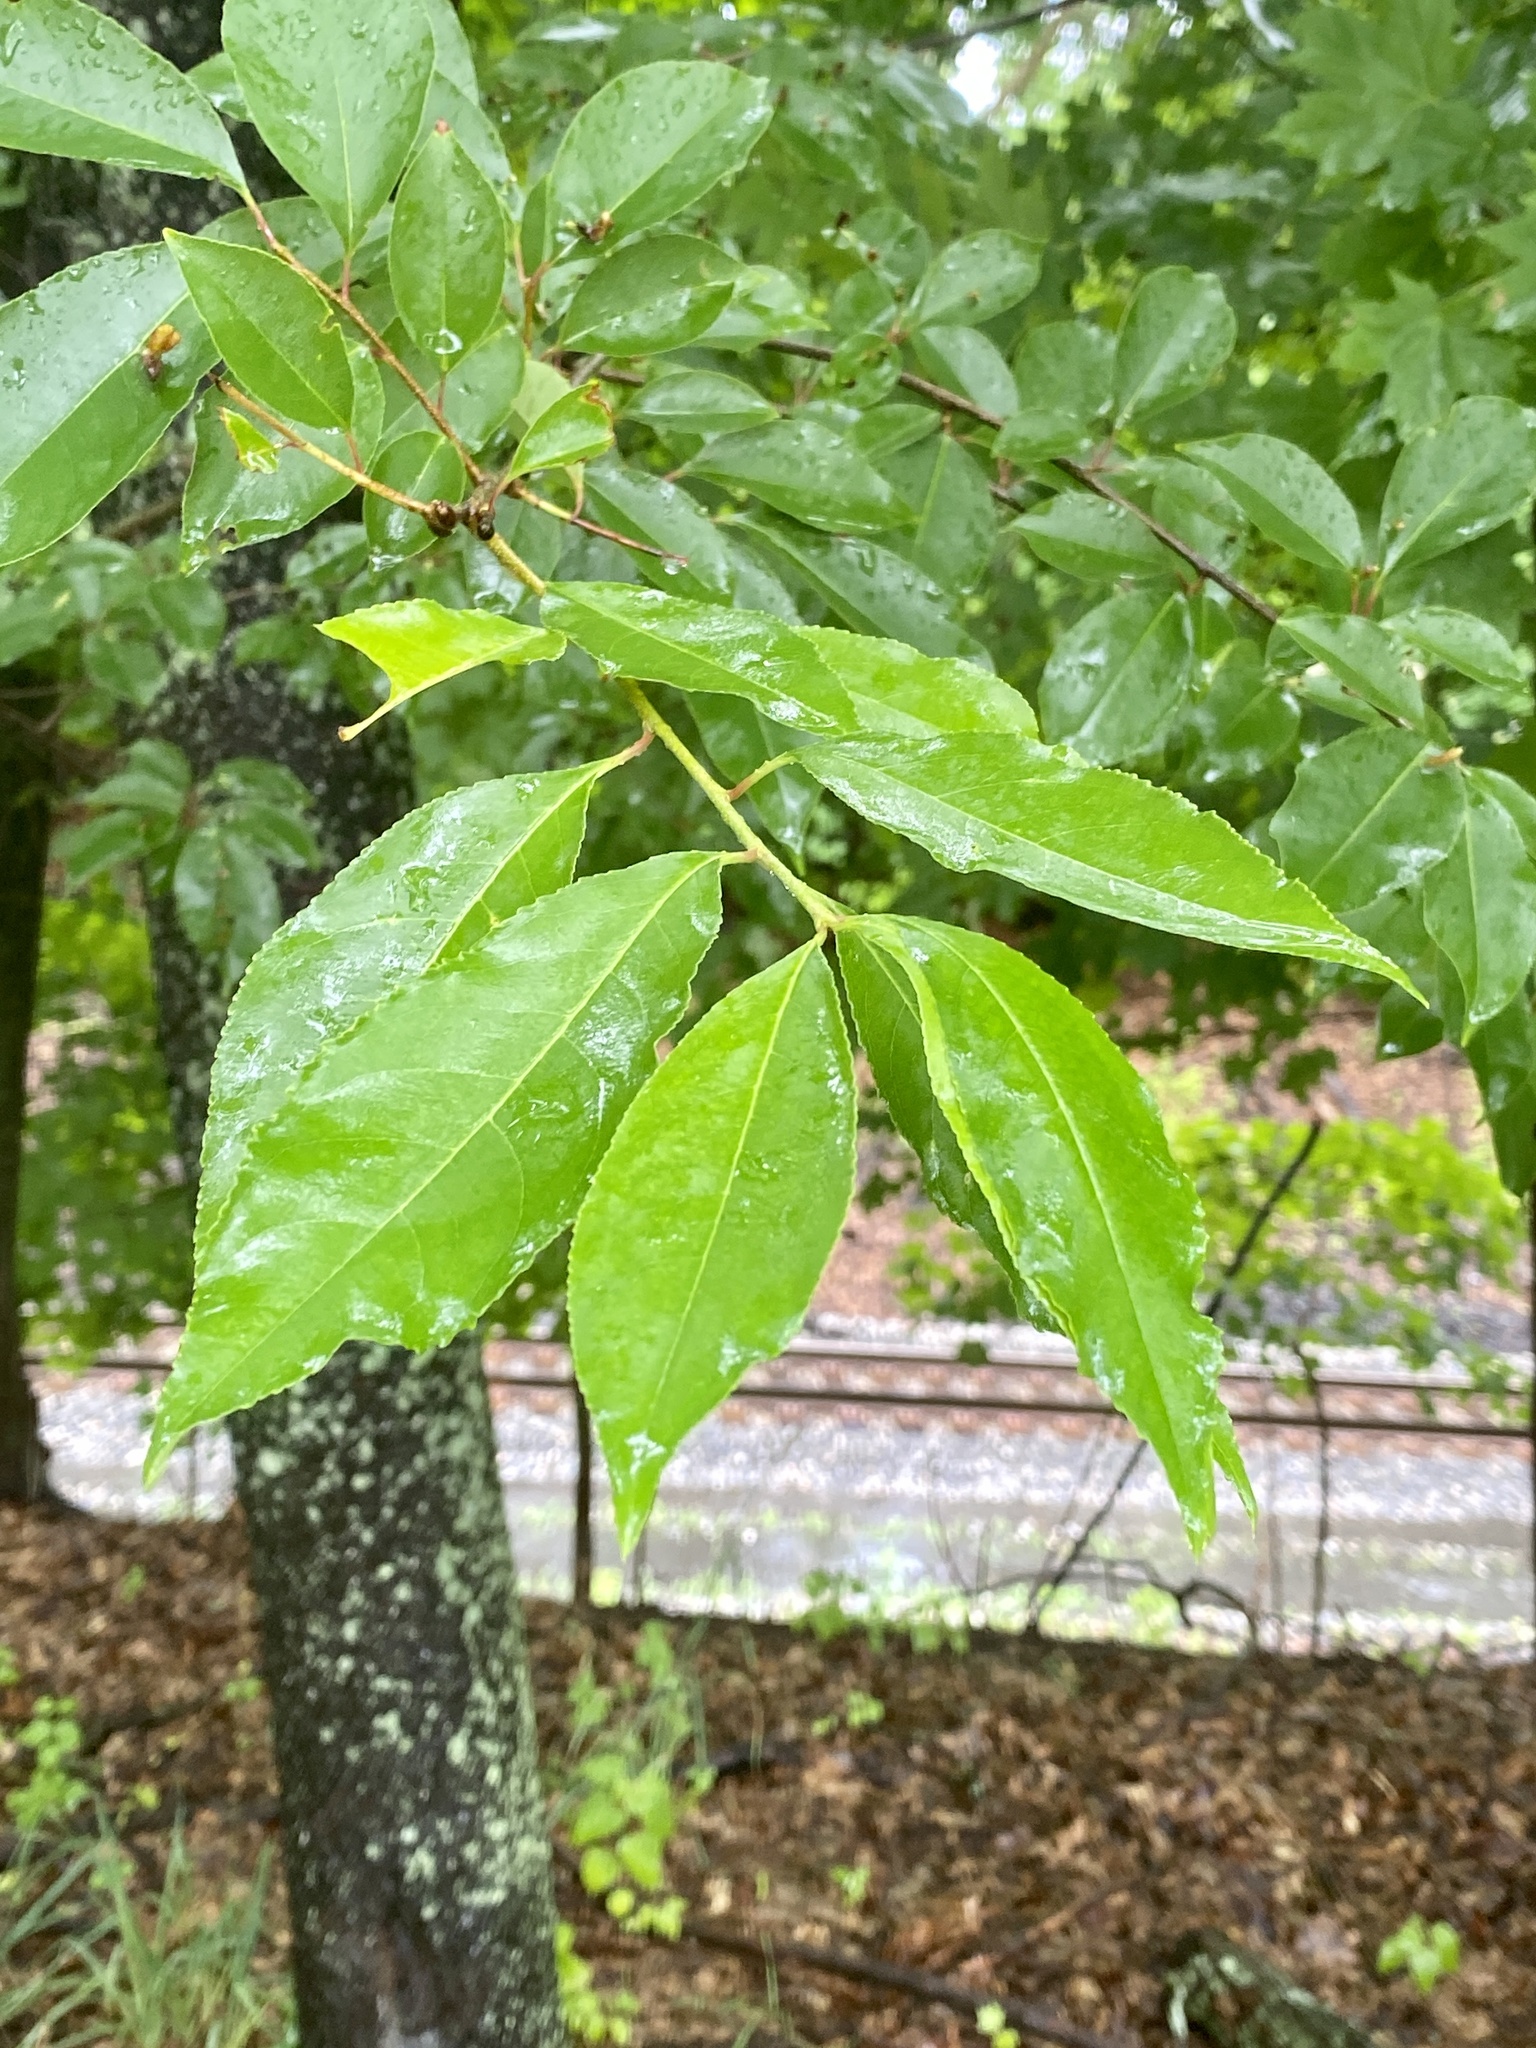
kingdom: Plantae
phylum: Tracheophyta
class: Magnoliopsida
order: Rosales
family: Rosaceae
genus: Prunus
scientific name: Prunus serotina
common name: Black cherry
